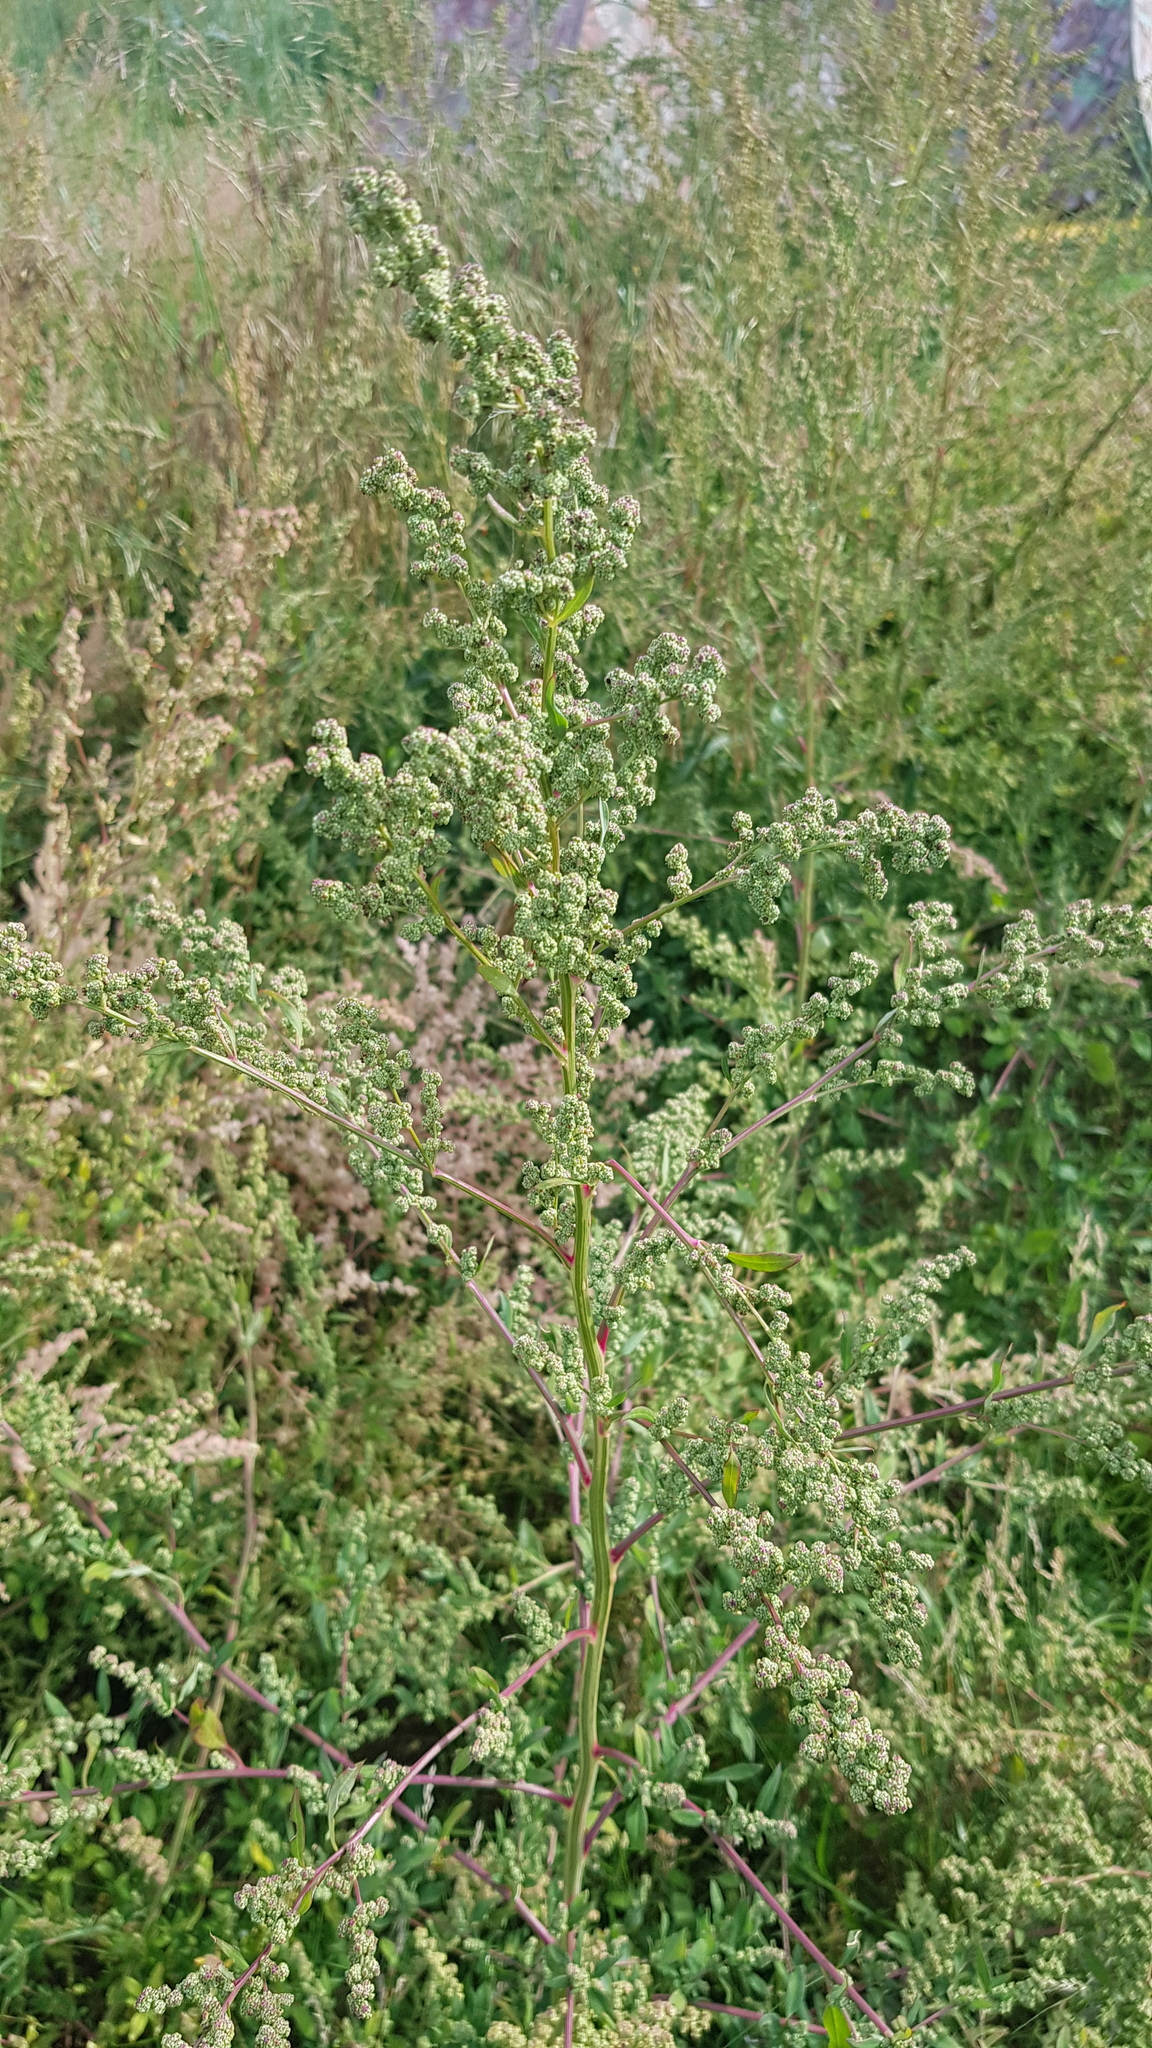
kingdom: Plantae
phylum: Tracheophyta
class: Magnoliopsida
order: Caryophyllales
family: Amaranthaceae
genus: Chenopodium
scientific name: Chenopodium album
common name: Fat-hen
